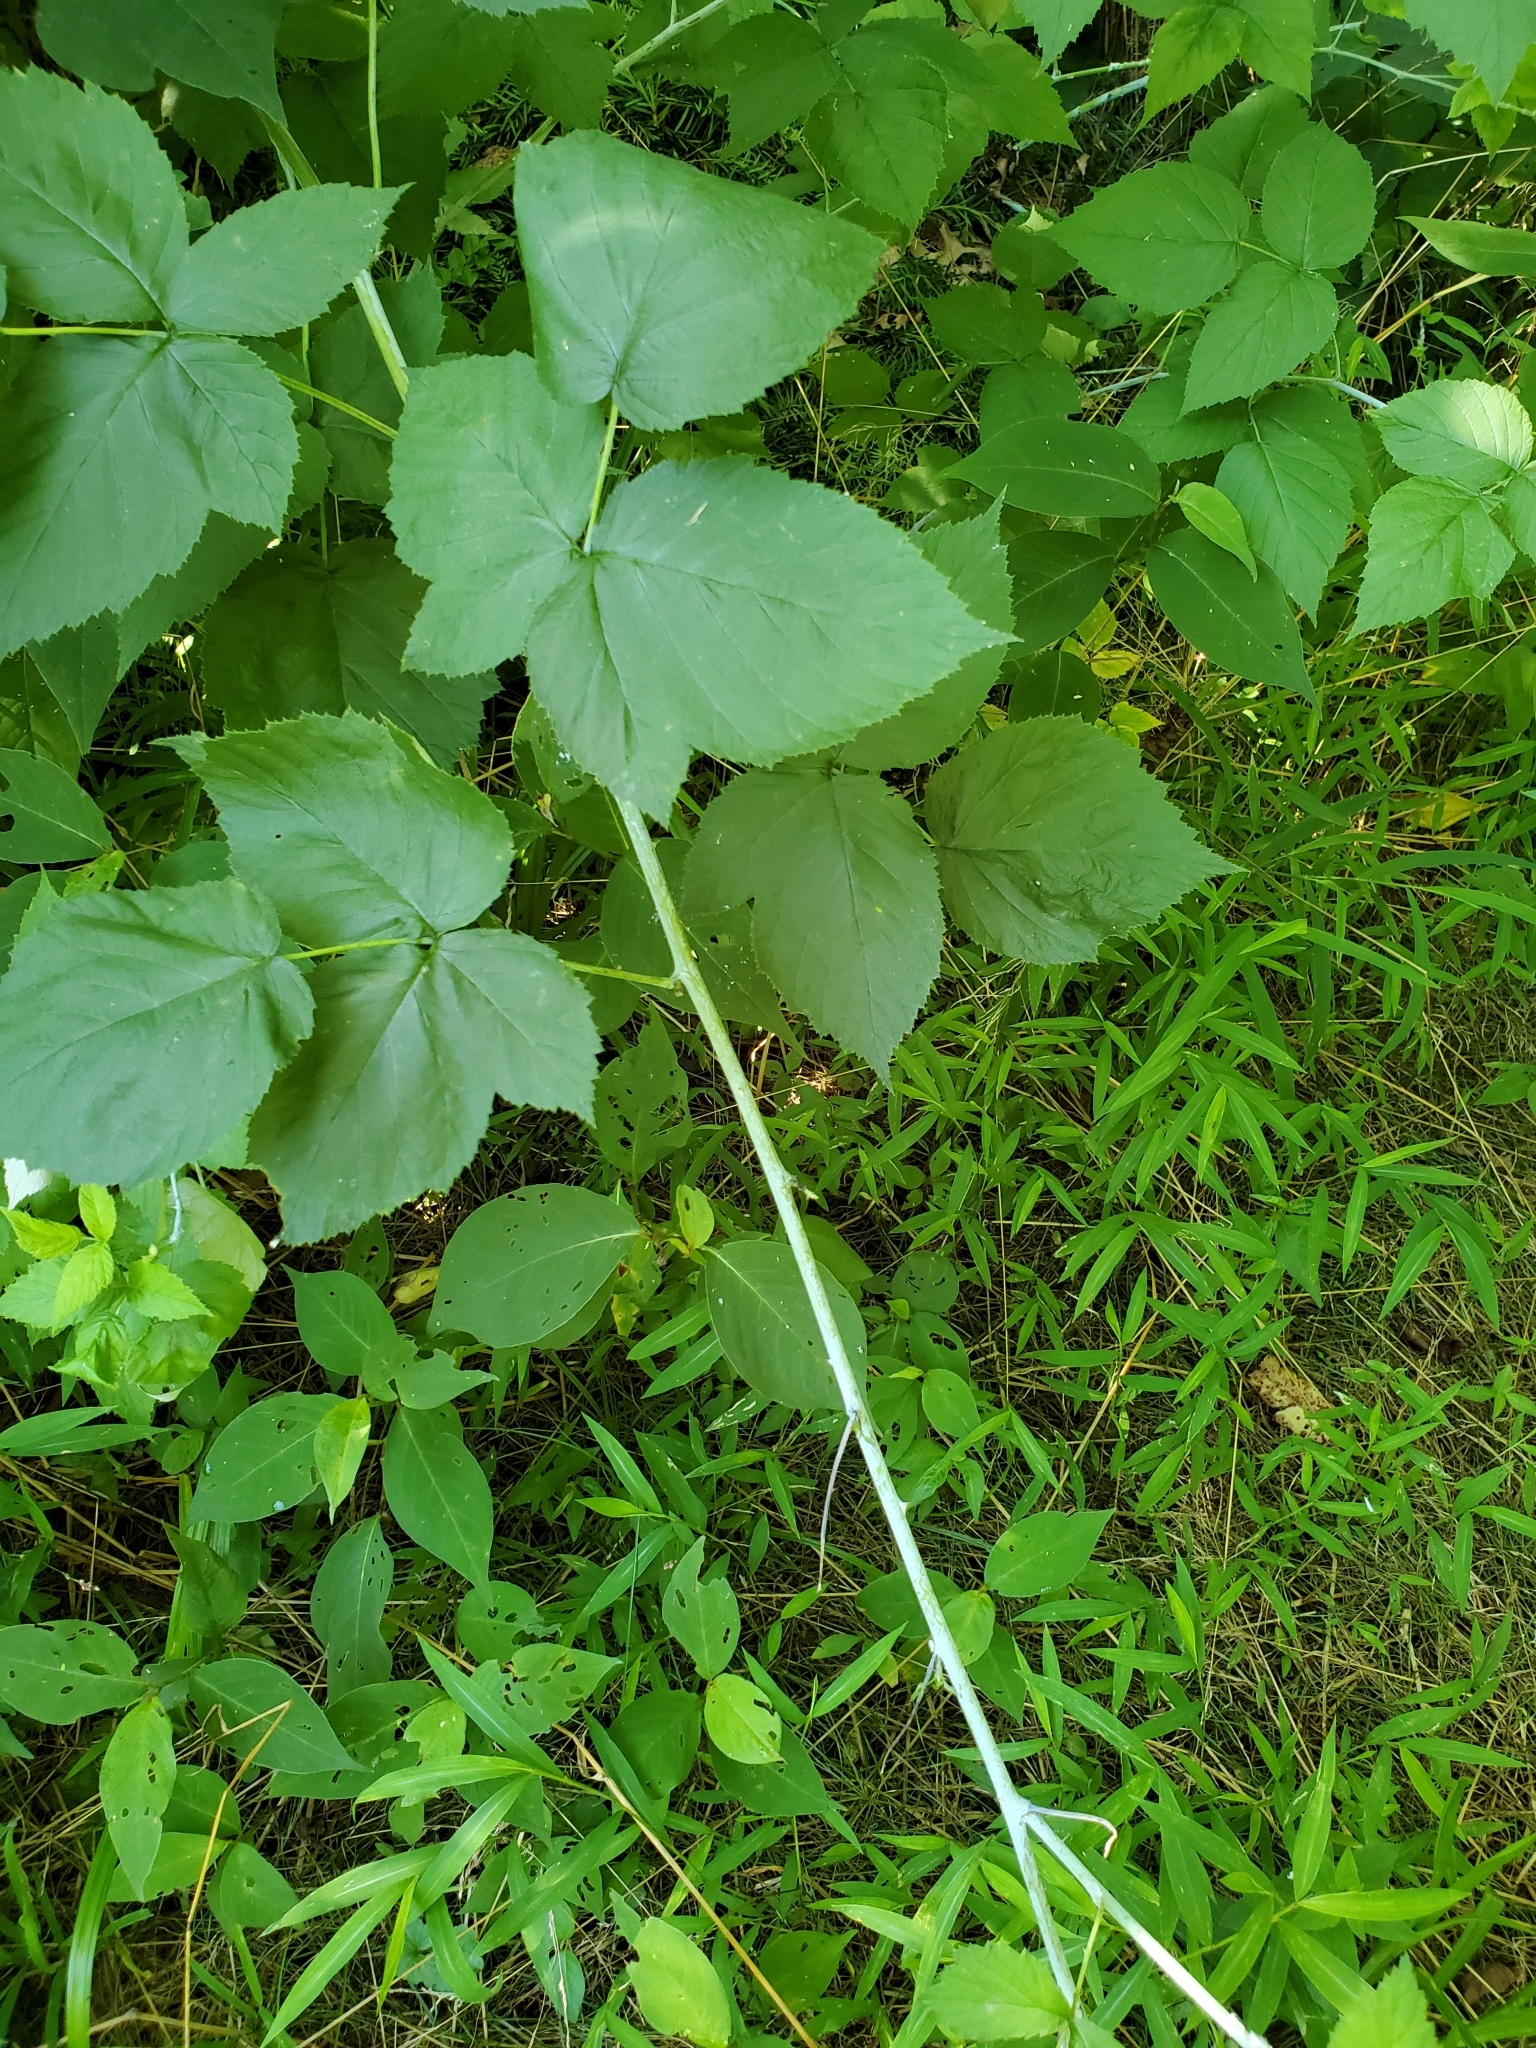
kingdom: Plantae
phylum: Tracheophyta
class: Magnoliopsida
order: Rosales
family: Rosaceae
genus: Rubus
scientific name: Rubus occidentalis
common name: Black raspberry
